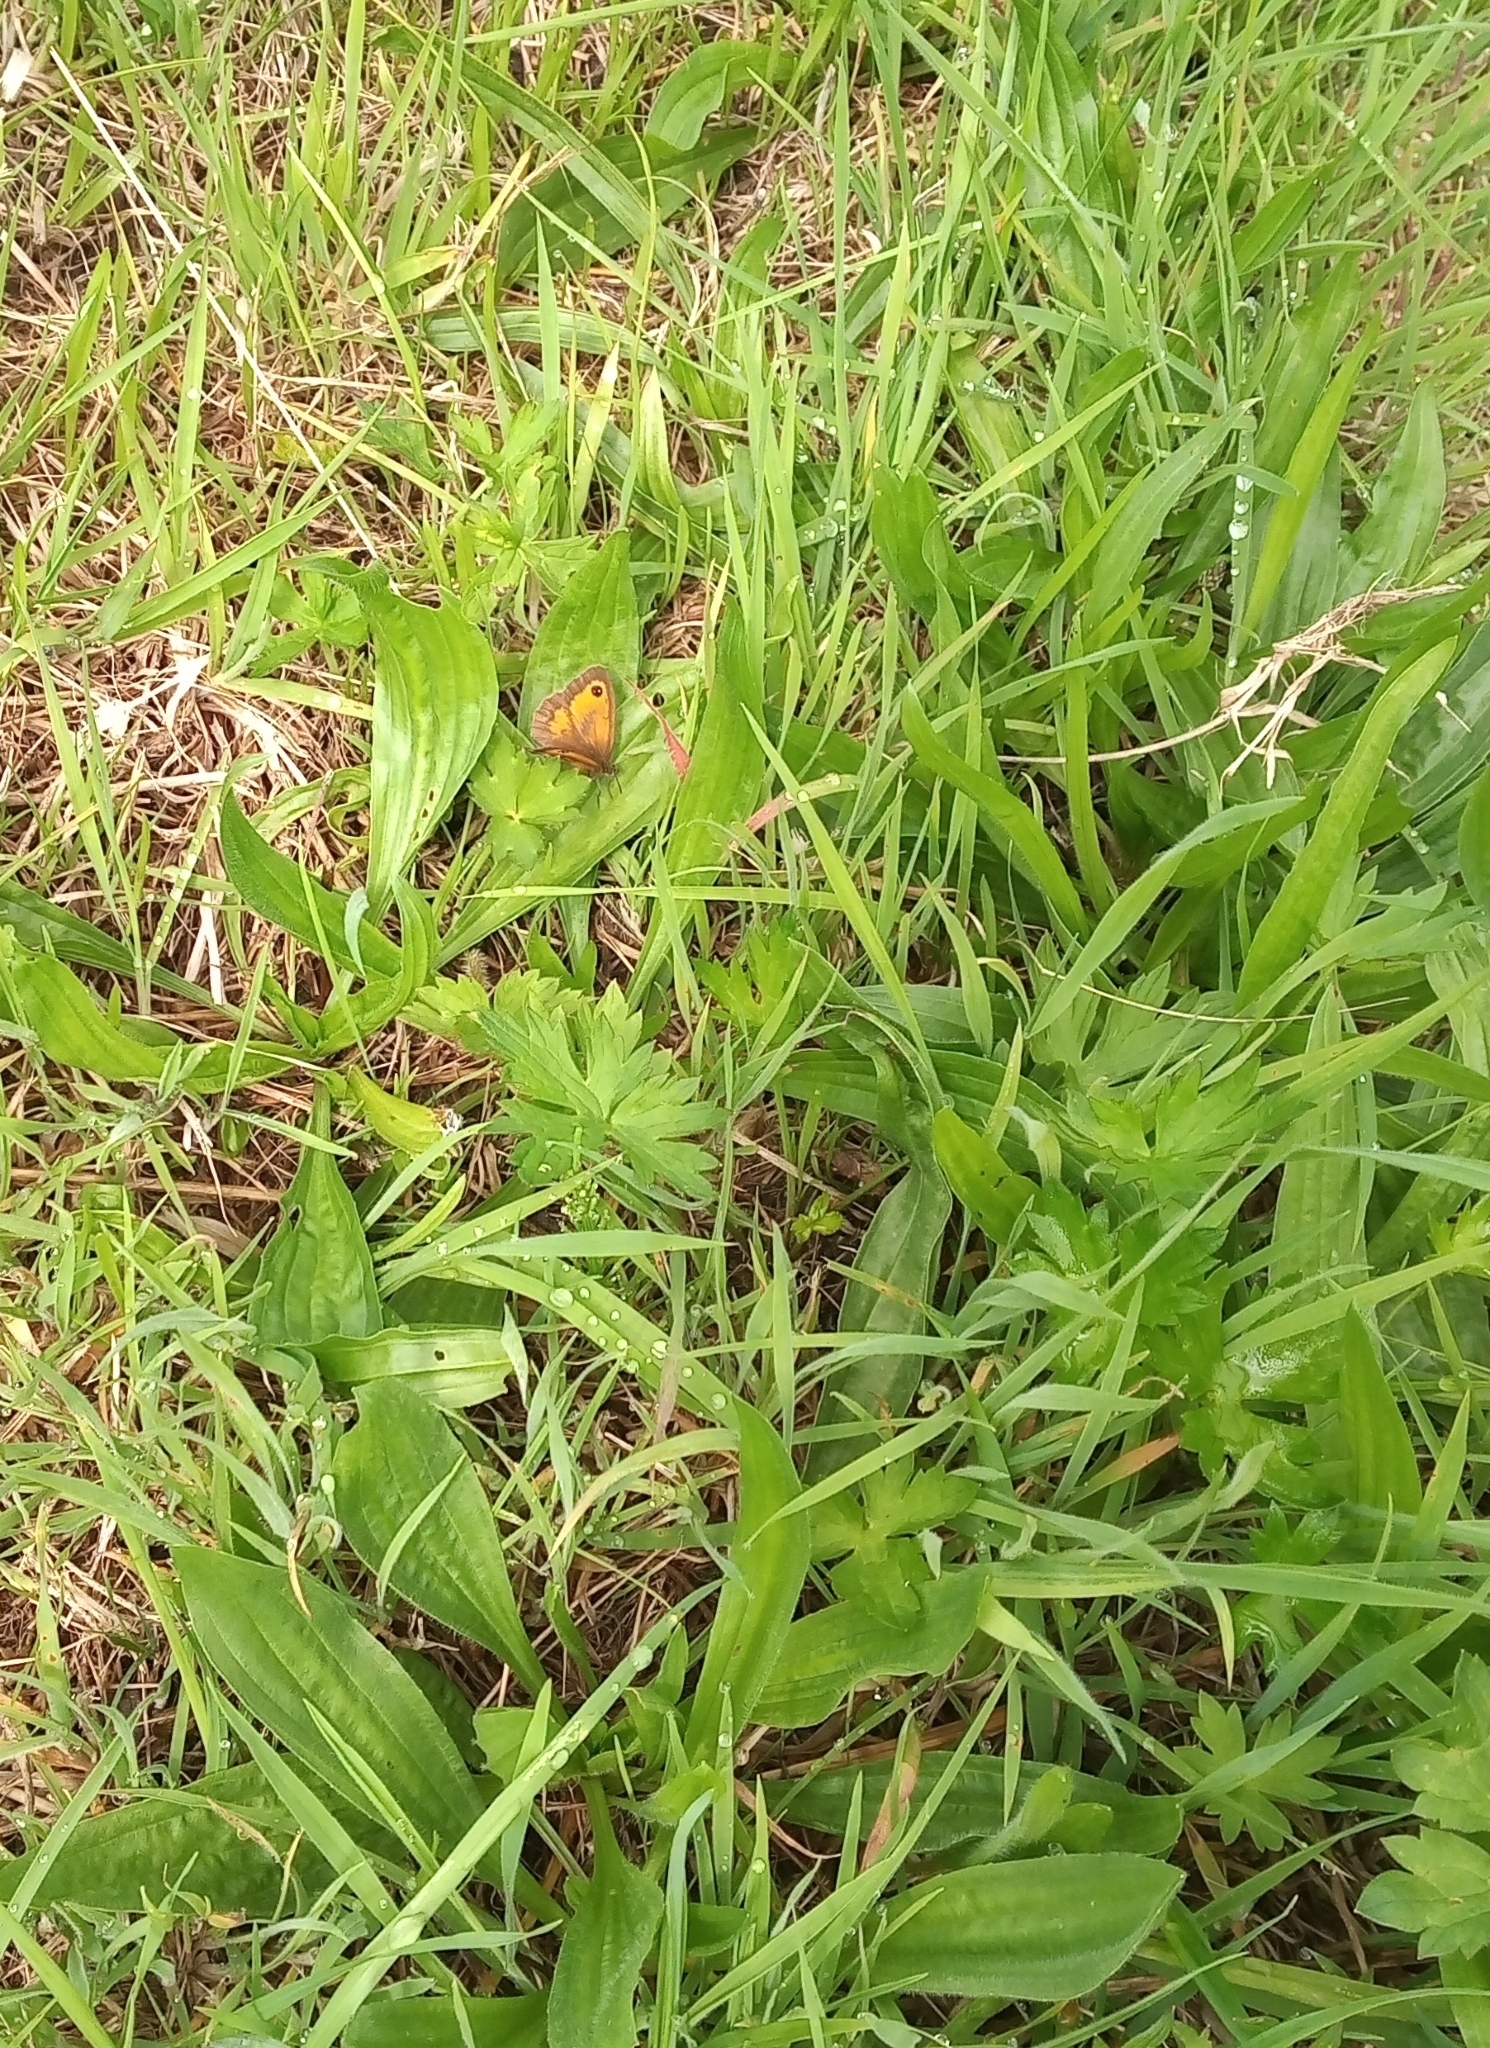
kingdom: Animalia
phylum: Arthropoda
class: Insecta
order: Lepidoptera
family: Nymphalidae
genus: Pyronia
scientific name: Pyronia tithonus
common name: Gatekeeper
